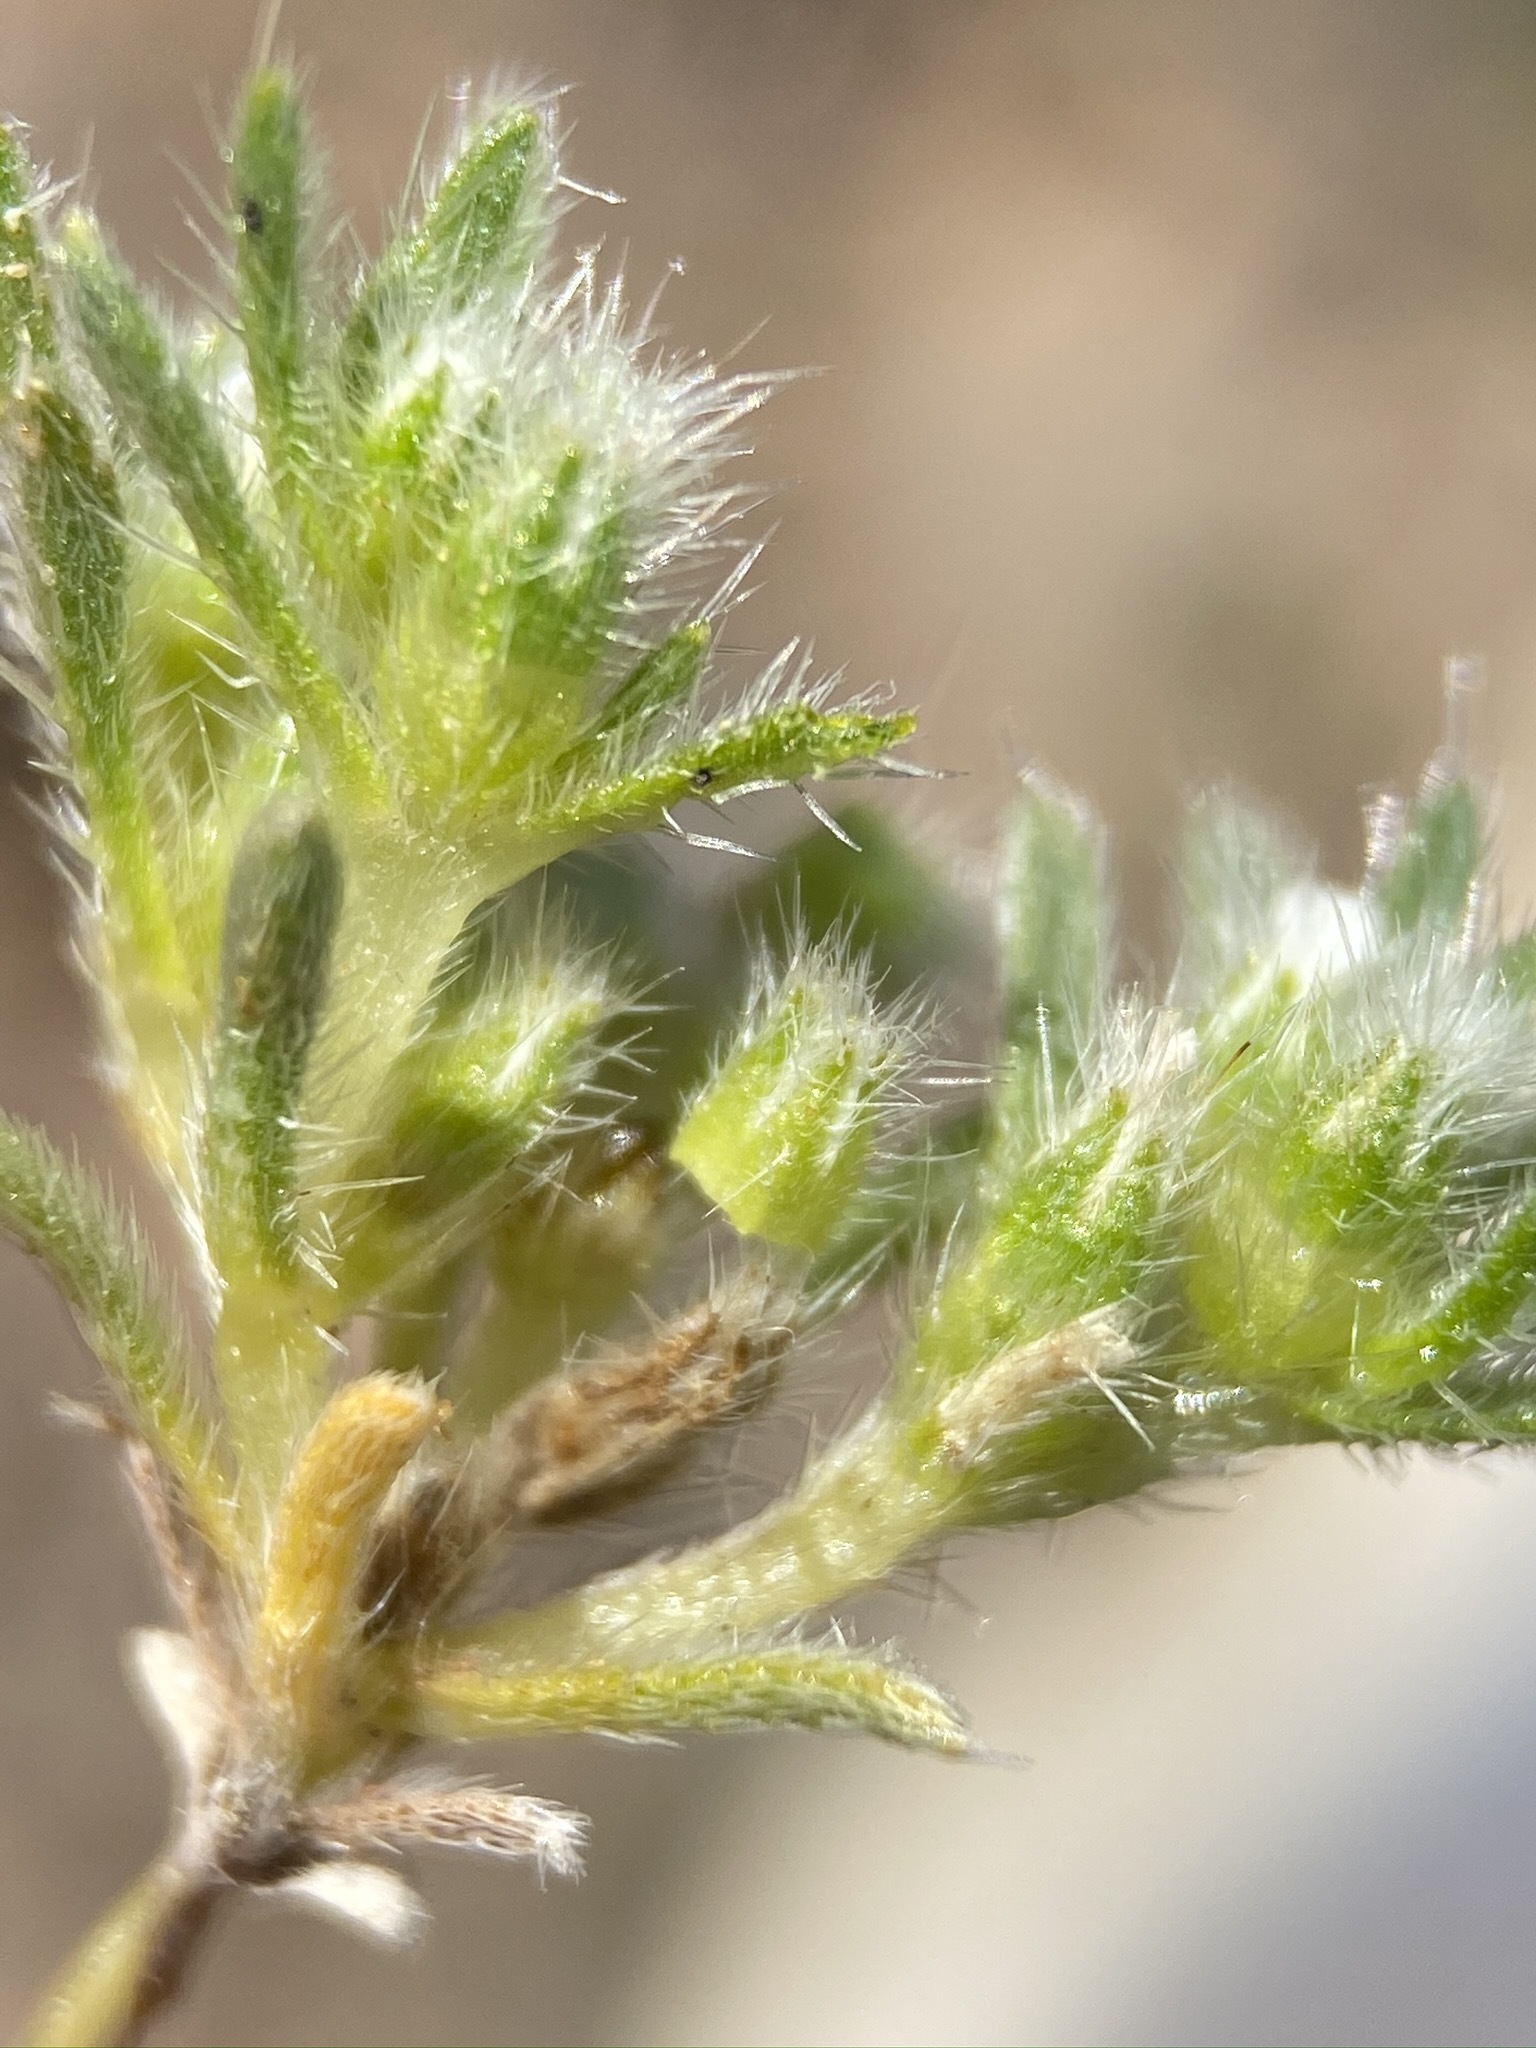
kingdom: Plantae
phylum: Tracheophyta
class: Magnoliopsida
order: Boraginales
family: Boraginaceae
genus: Greeneocharis
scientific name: Greeneocharis circumscissa
